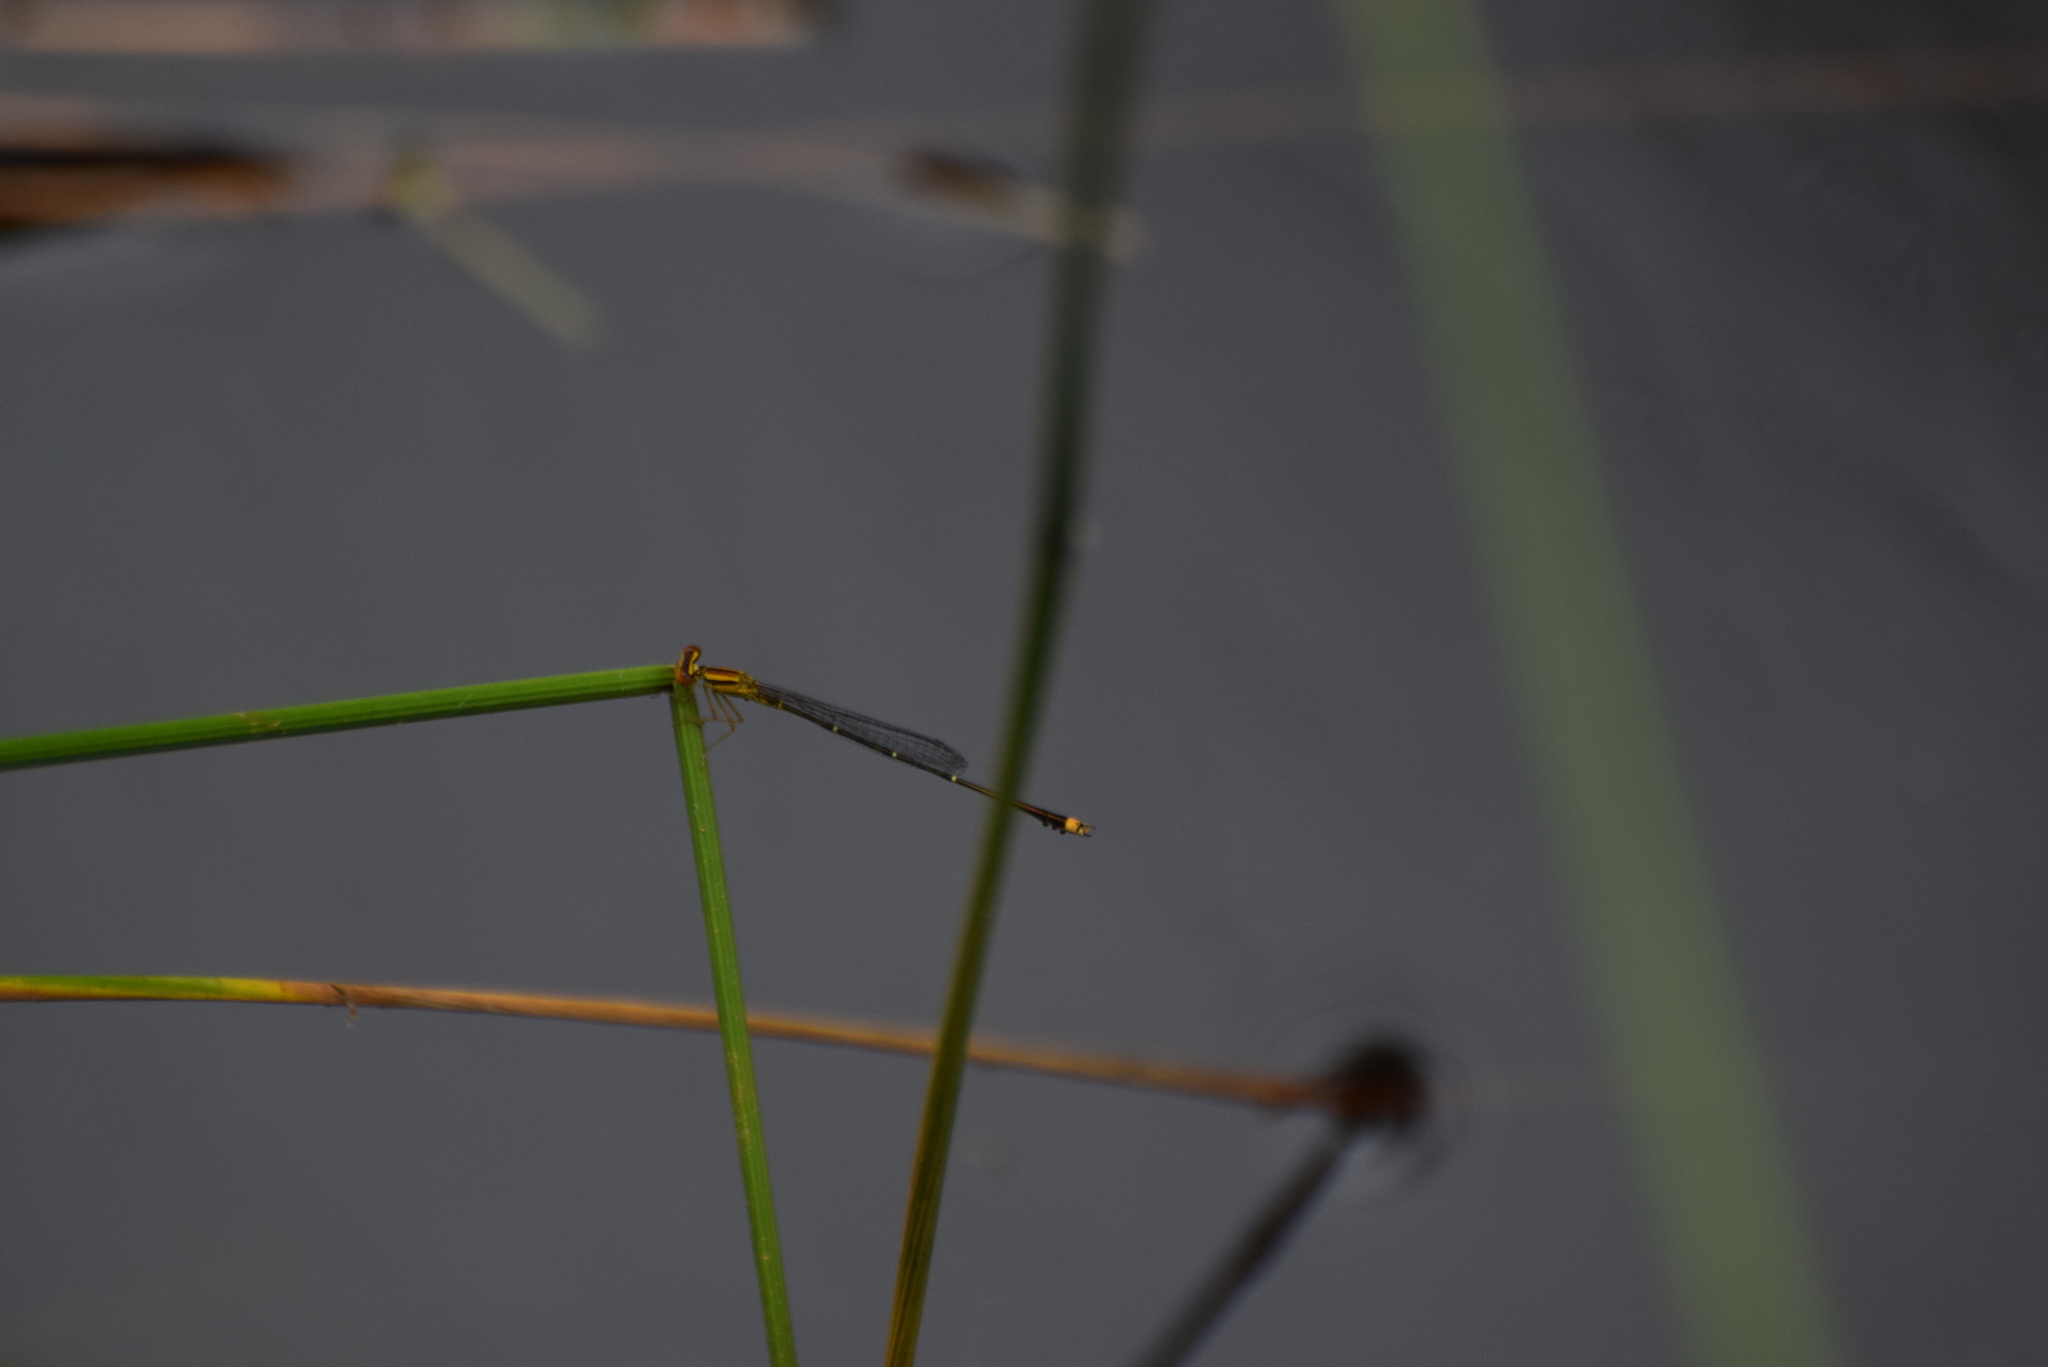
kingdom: Animalia
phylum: Arthropoda
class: Insecta
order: Odonata
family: Coenagrionidae
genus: Enallagma
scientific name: Enallagma signatum
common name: Orange bluet
